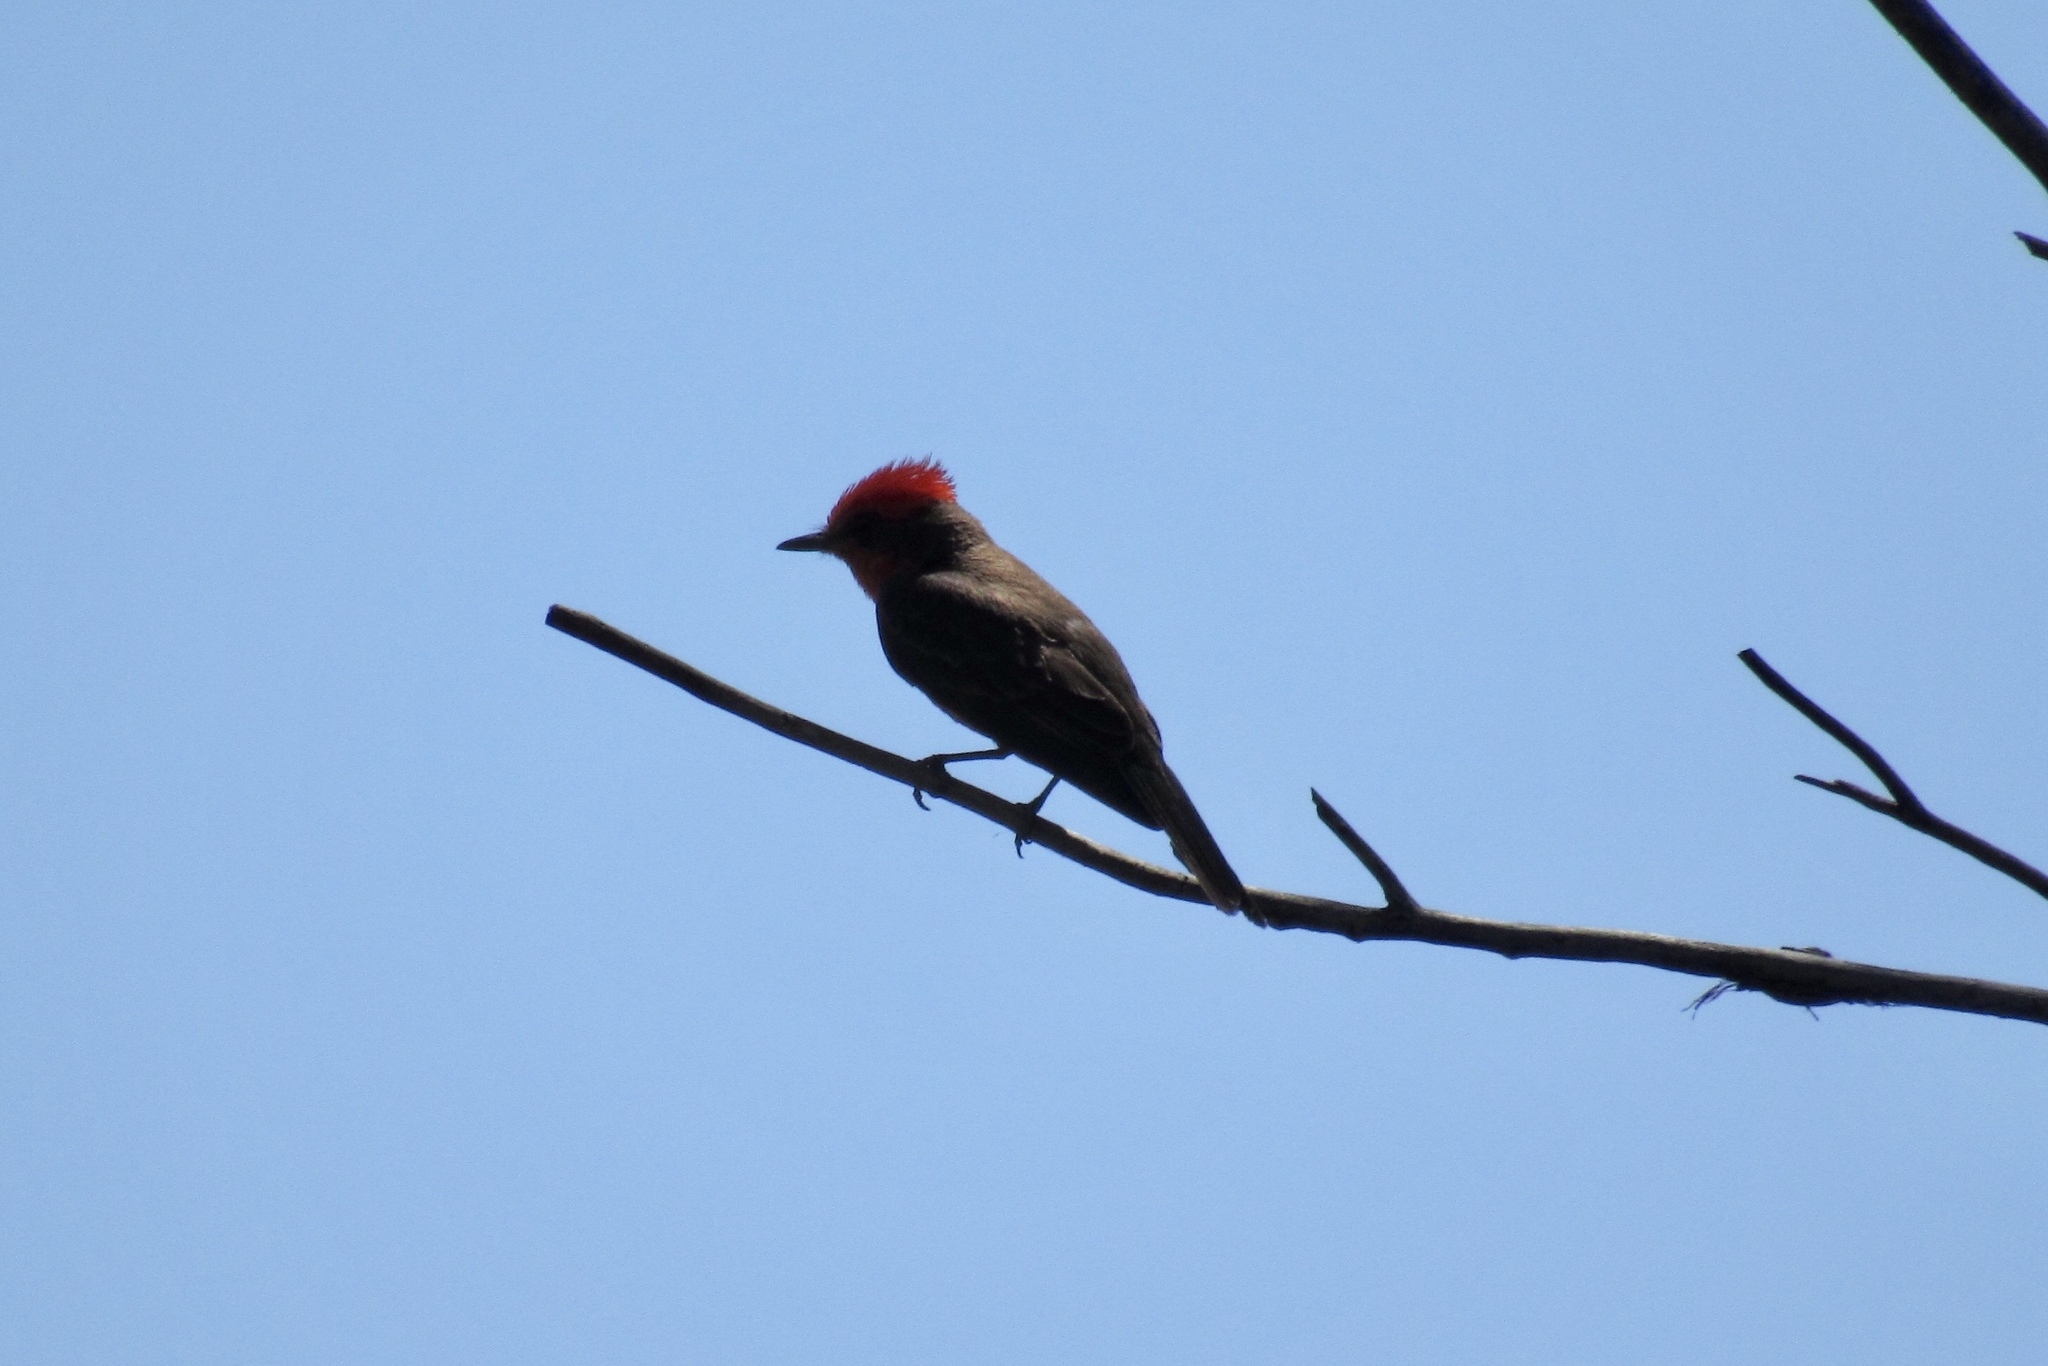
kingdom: Animalia
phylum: Chordata
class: Aves
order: Passeriformes
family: Tyrannidae
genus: Pyrocephalus
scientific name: Pyrocephalus rubinus
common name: Vermilion flycatcher
